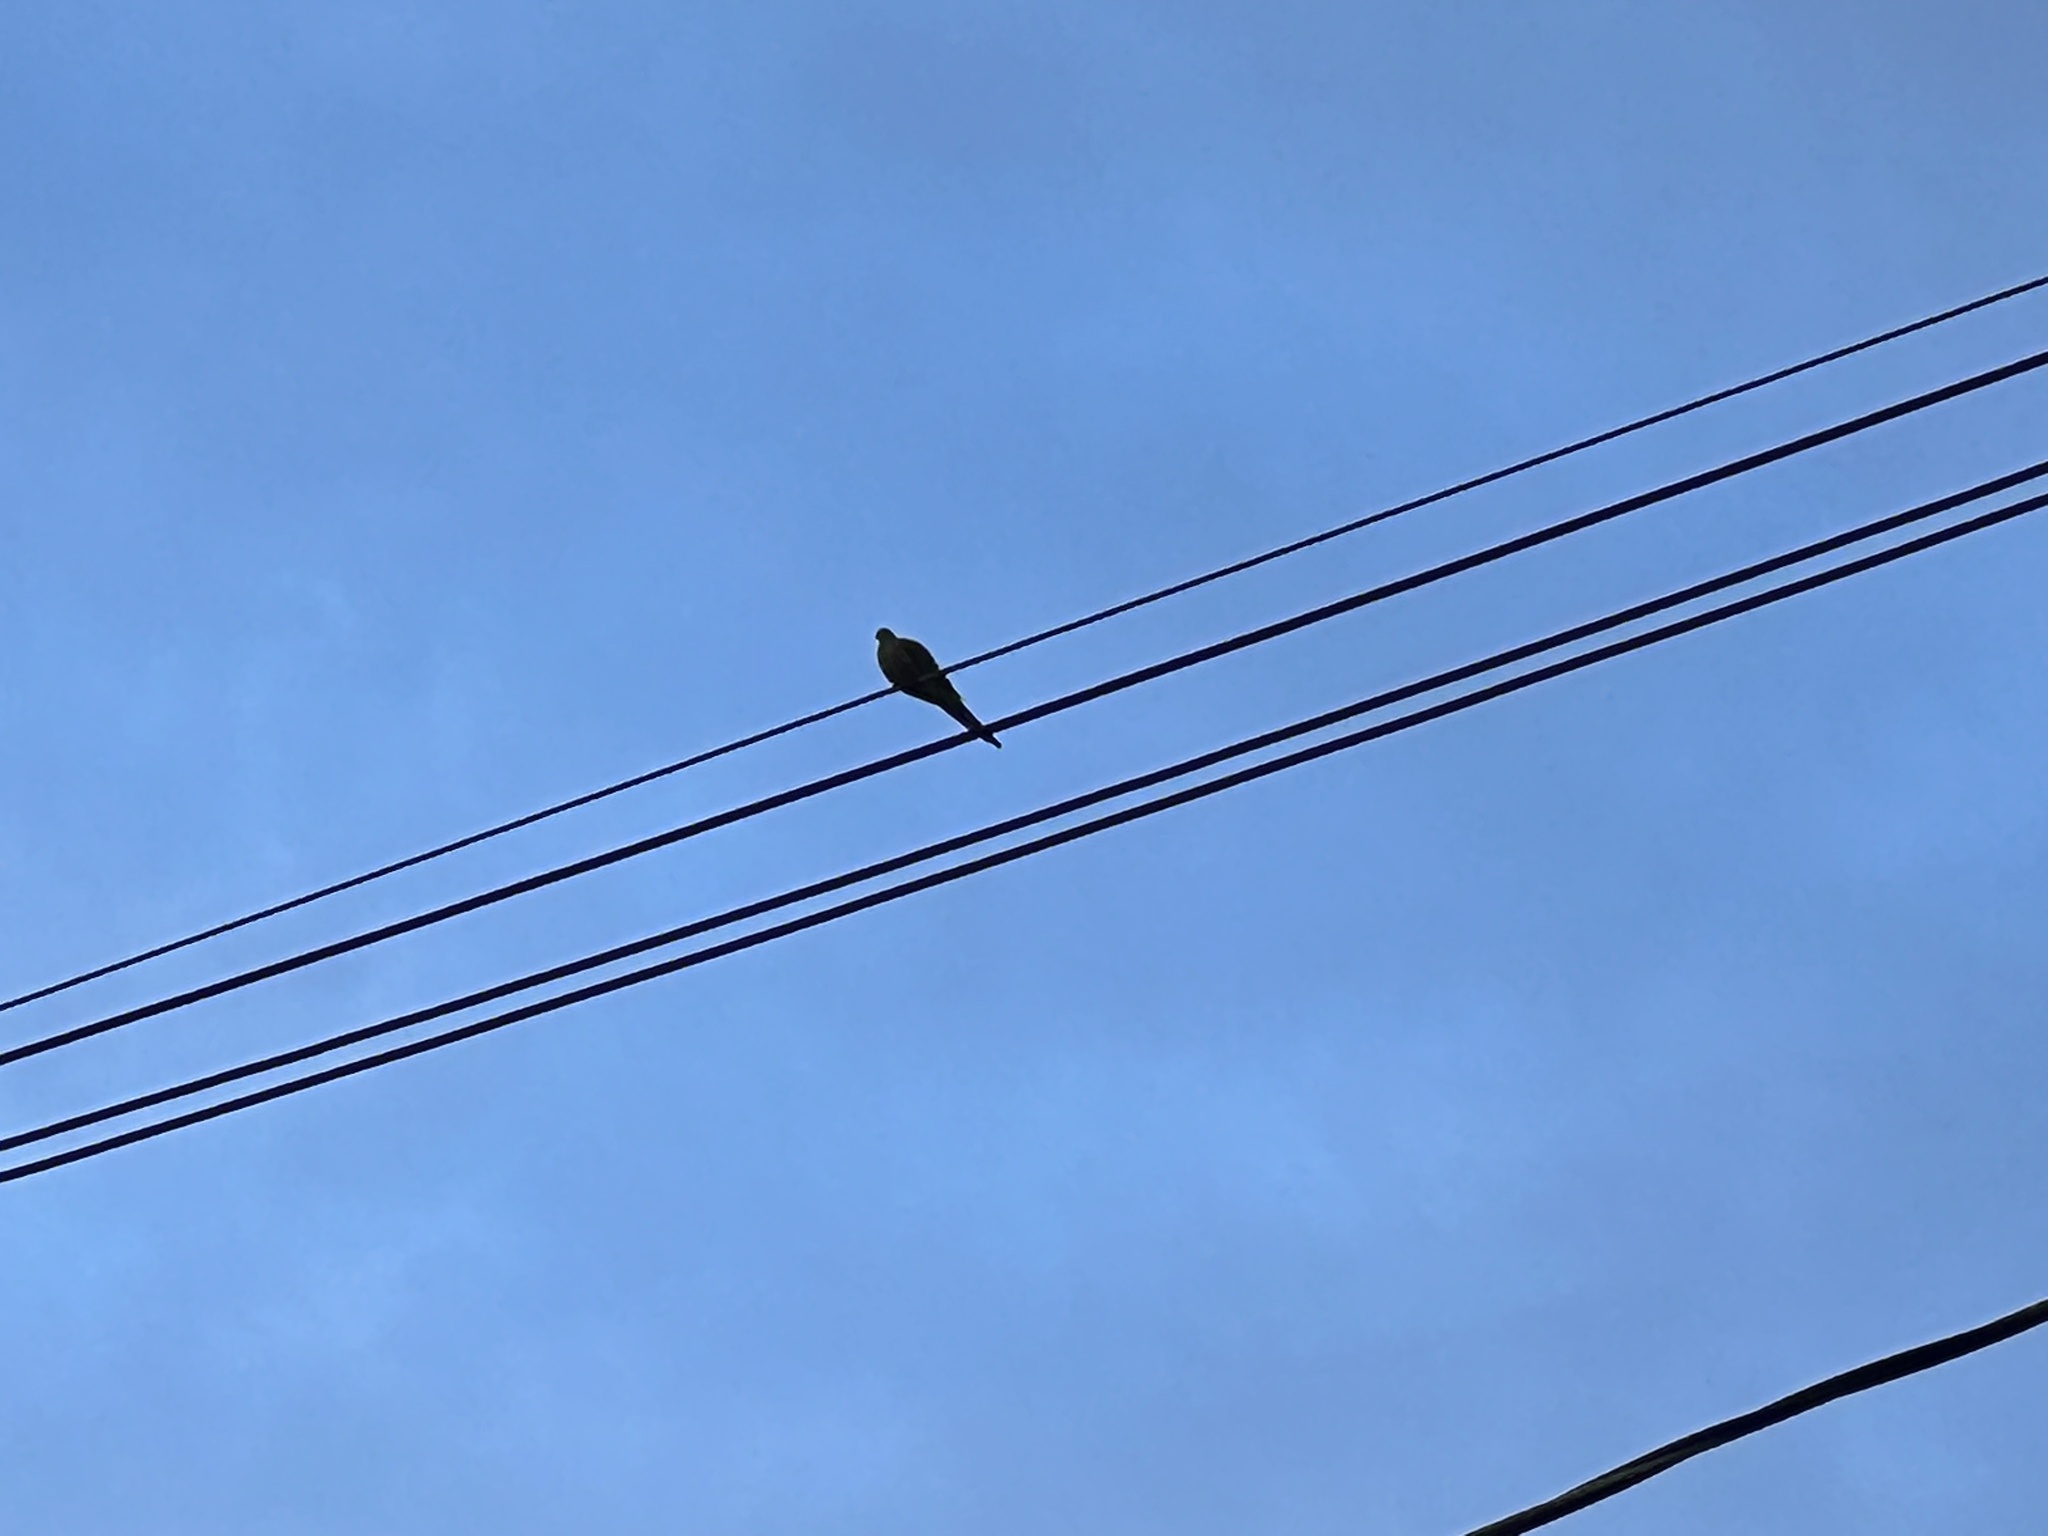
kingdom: Animalia
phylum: Chordata
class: Aves
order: Columbiformes
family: Columbidae
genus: Zenaida
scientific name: Zenaida macroura
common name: Mourning dove
